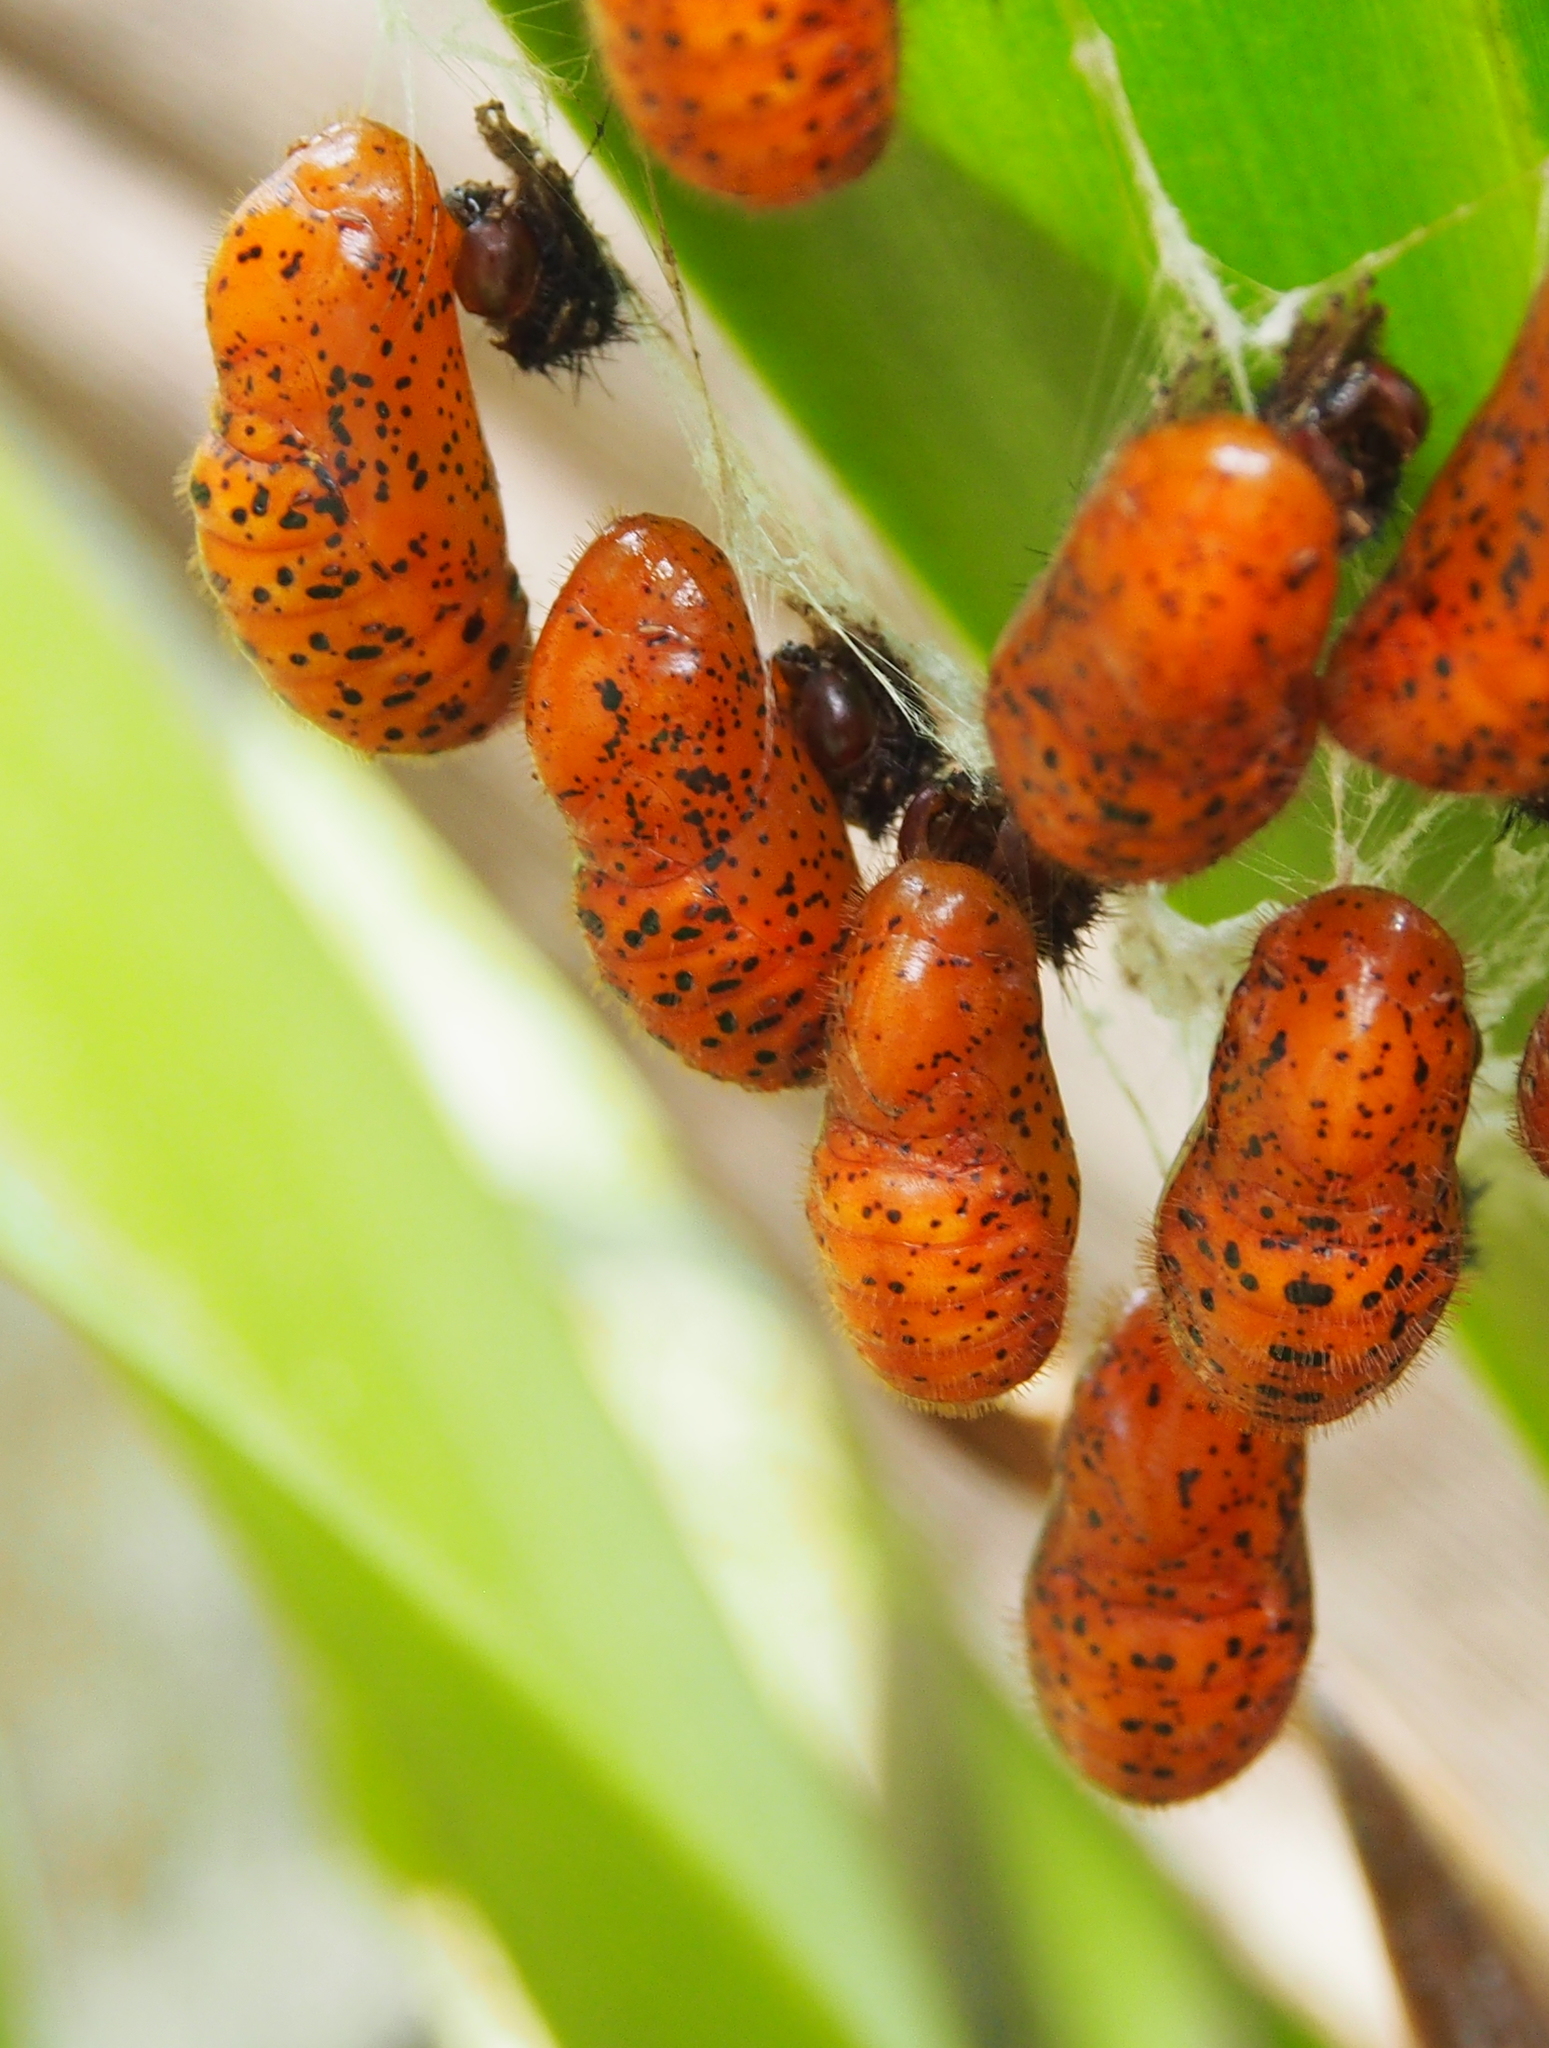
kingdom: Animalia
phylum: Arthropoda
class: Insecta
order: Lepidoptera
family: Lycaenidae
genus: Eumaeus
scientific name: Eumaeus godartii
